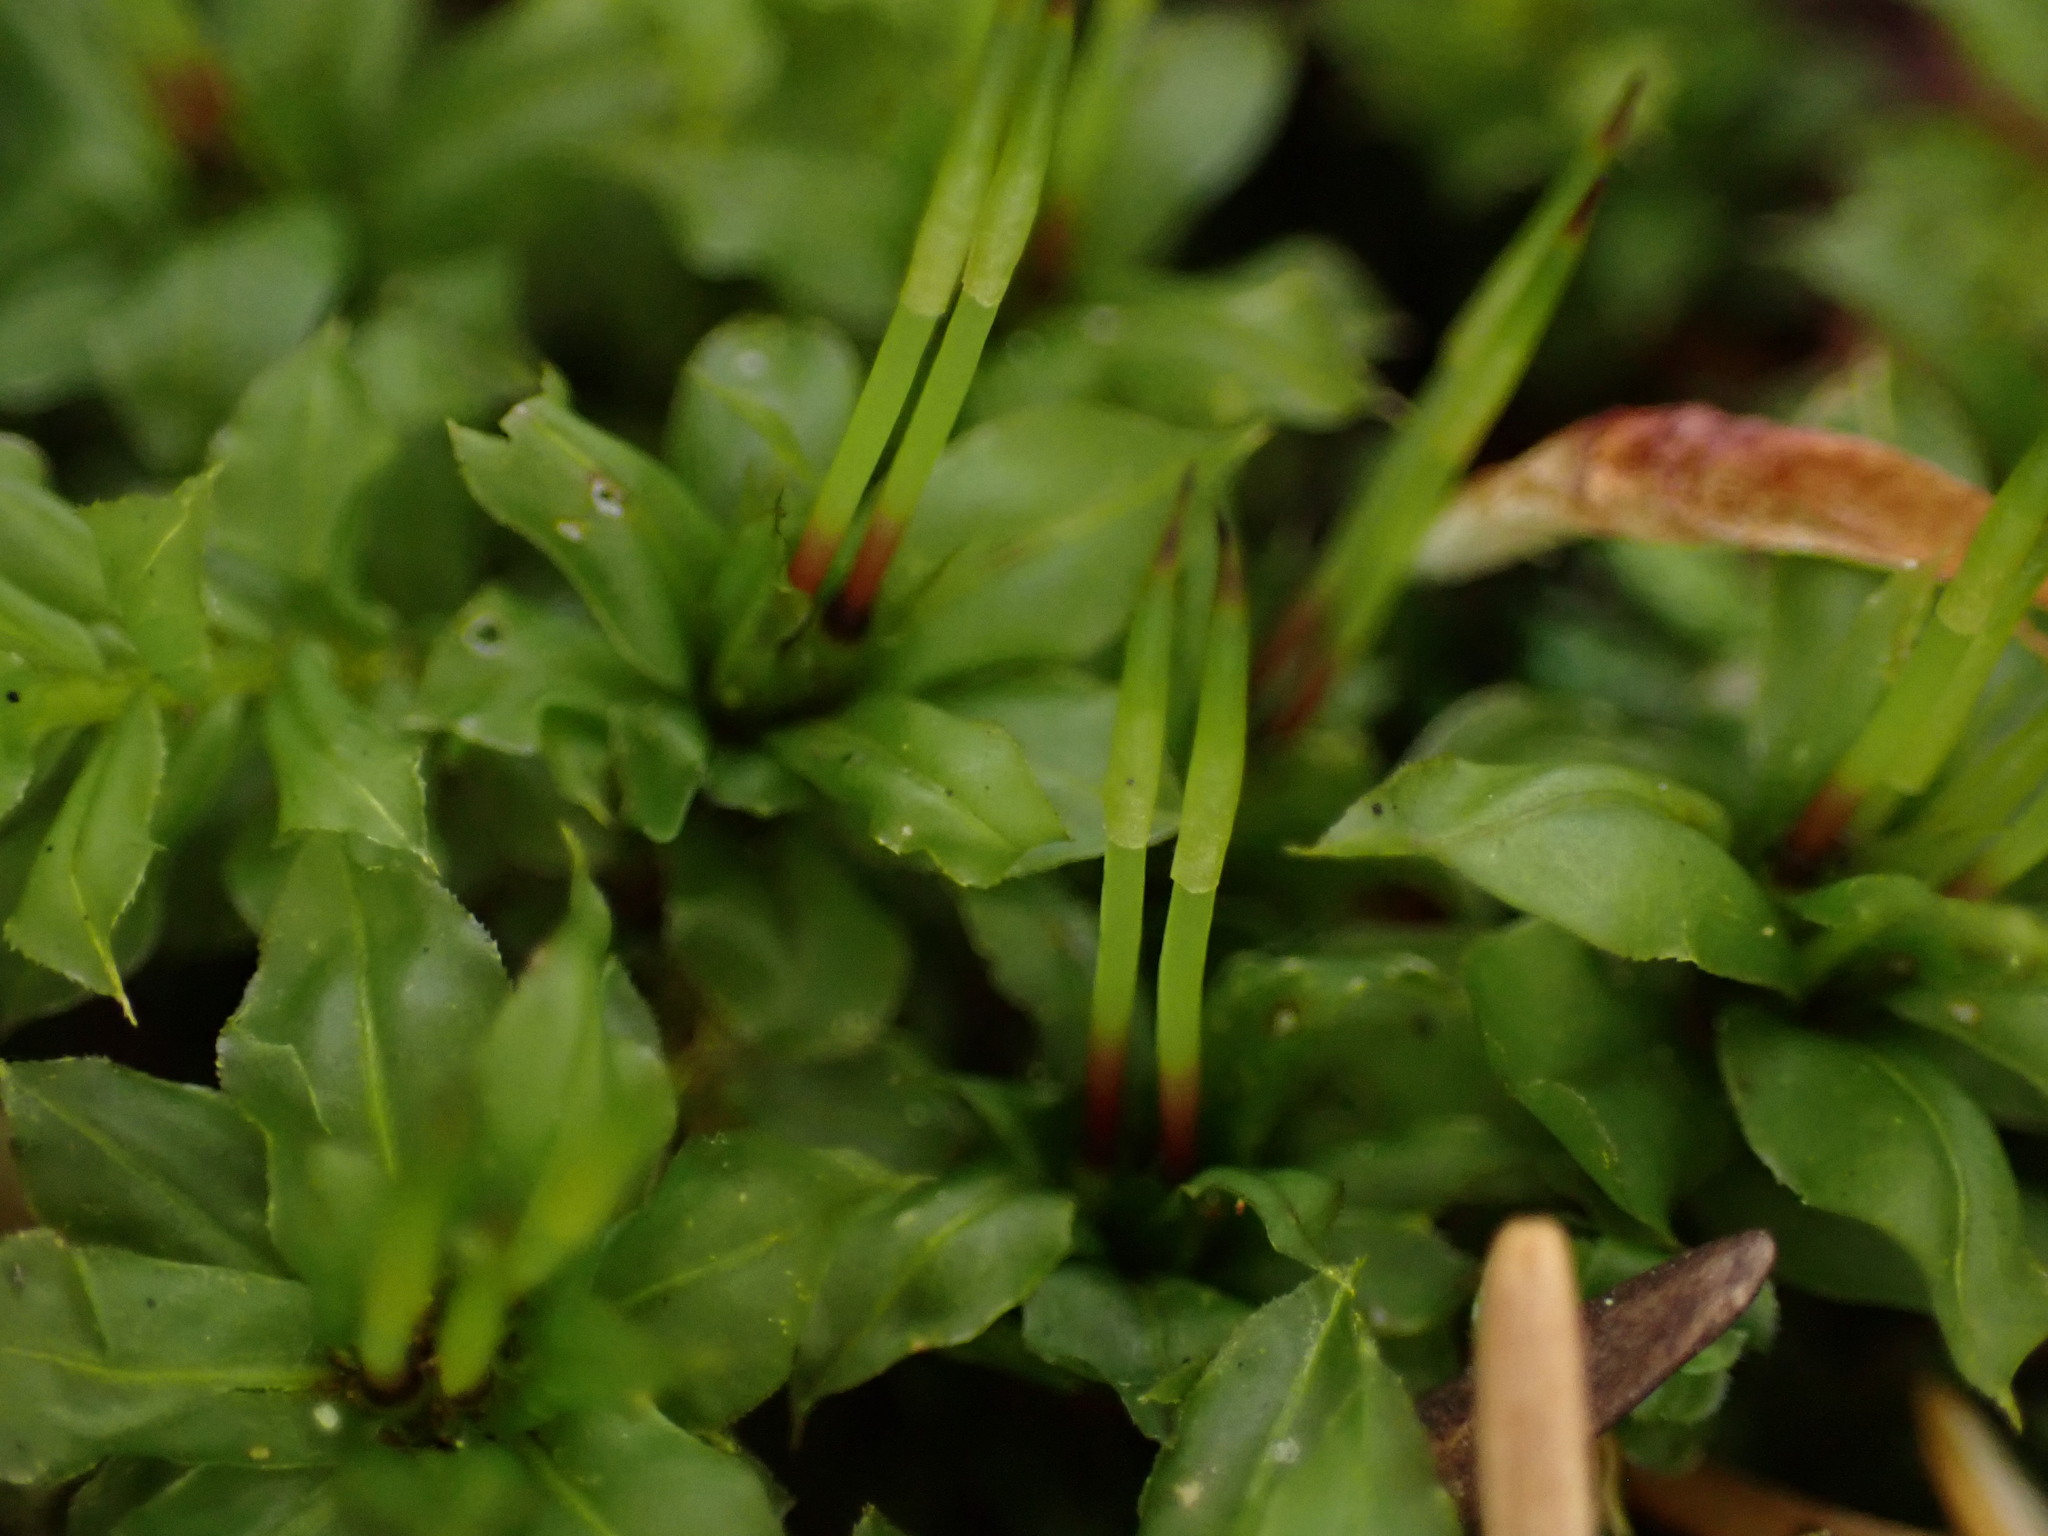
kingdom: Plantae
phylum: Bryophyta
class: Bryopsida
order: Bryales
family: Mniaceae
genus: Plagiomnium
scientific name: Plagiomnium insigne
